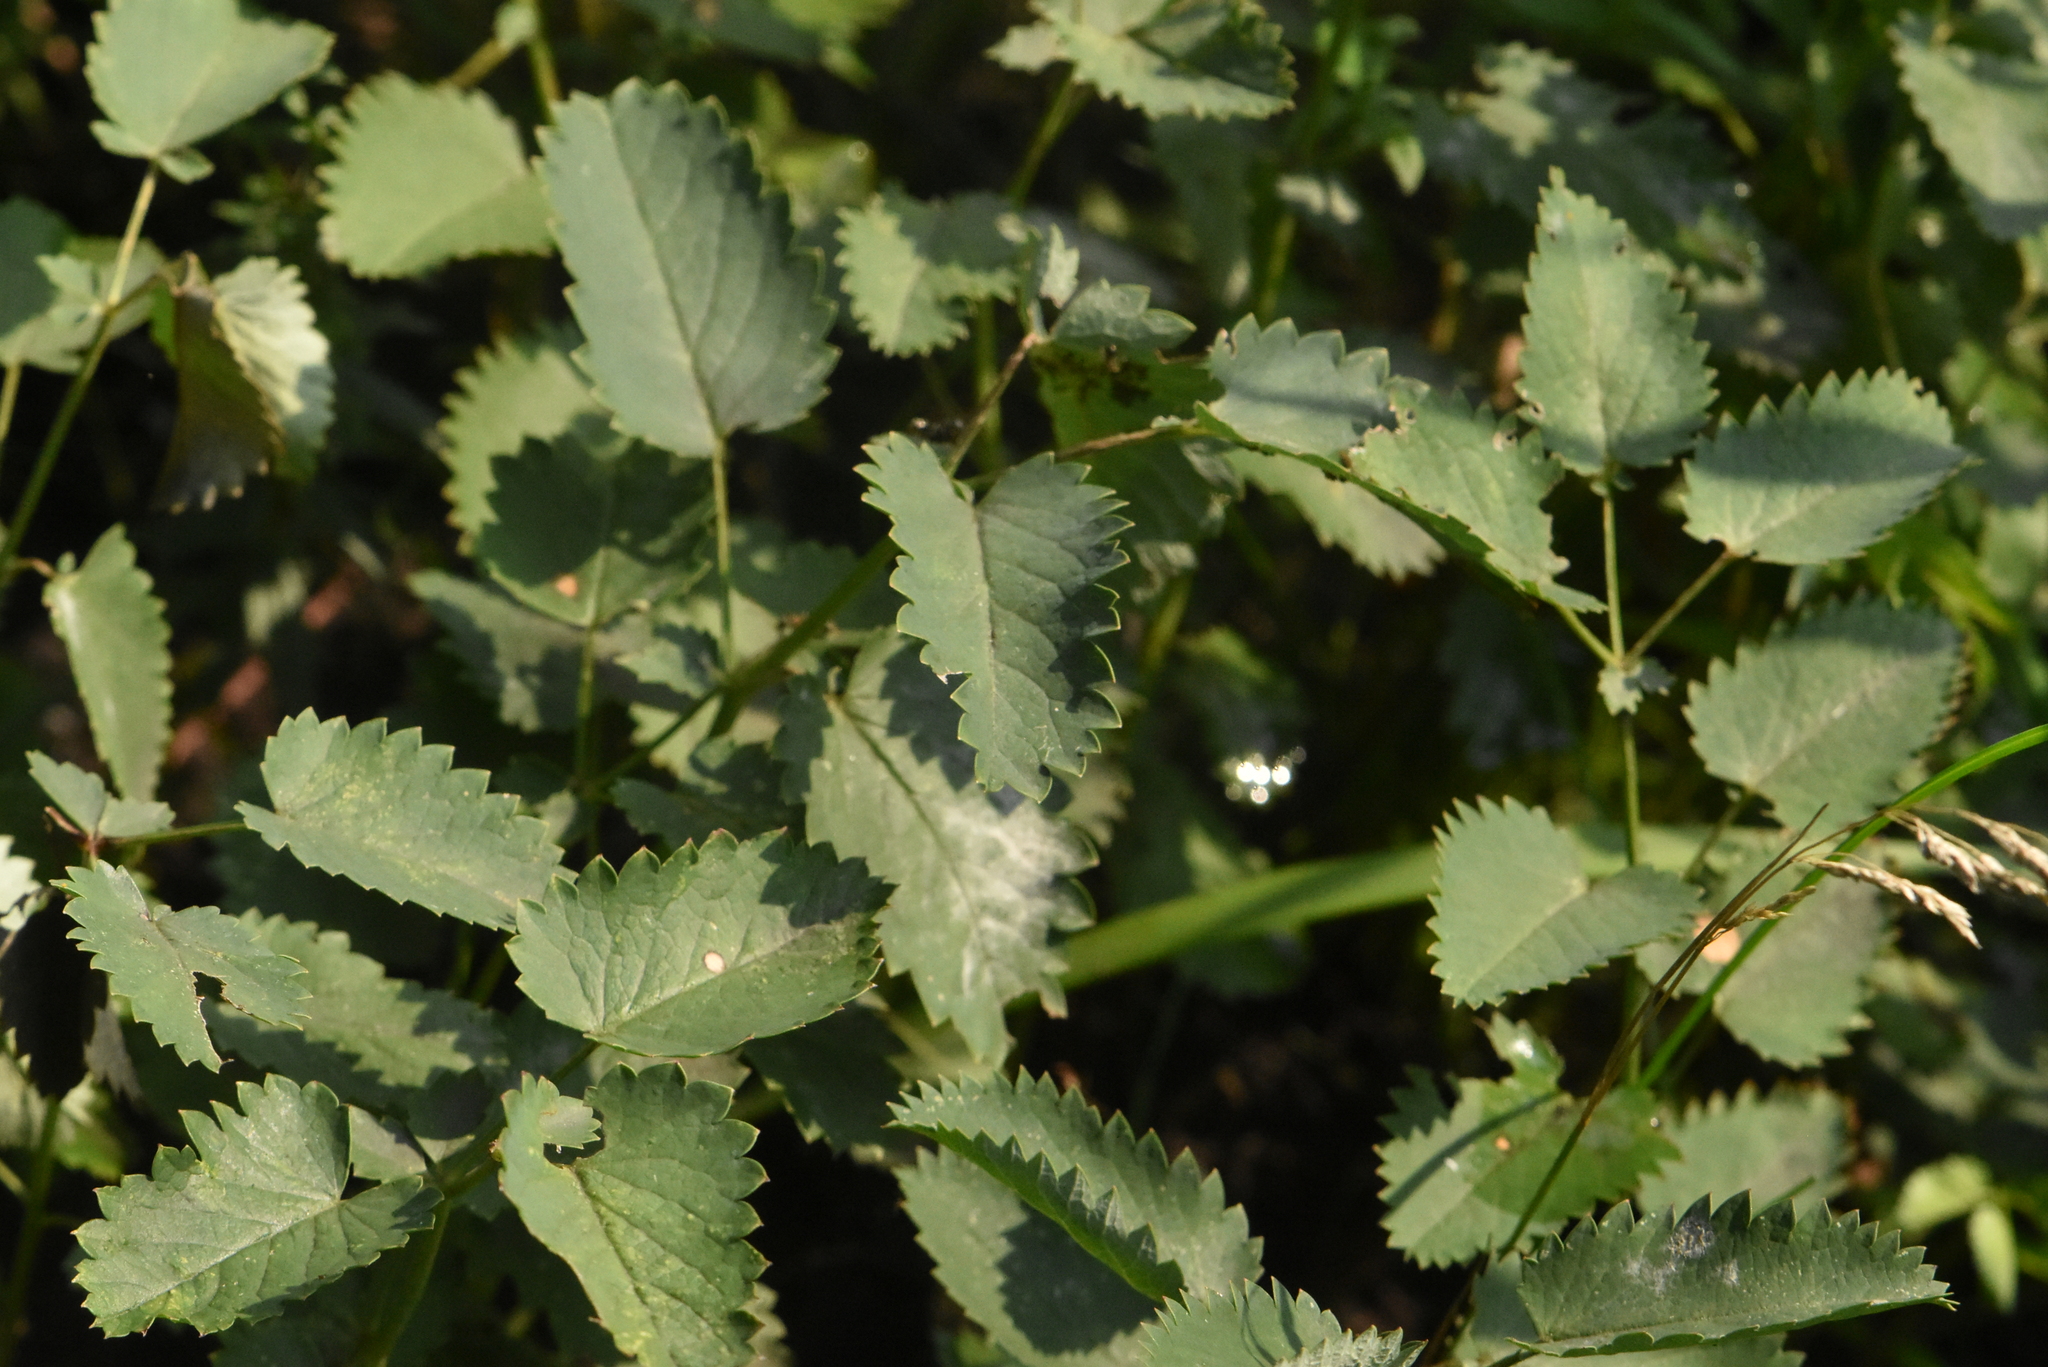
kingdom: Plantae
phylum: Tracheophyta
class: Magnoliopsida
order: Rosales
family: Rosaceae
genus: Sanguisorba
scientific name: Sanguisorba officinalis
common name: Great burnet
